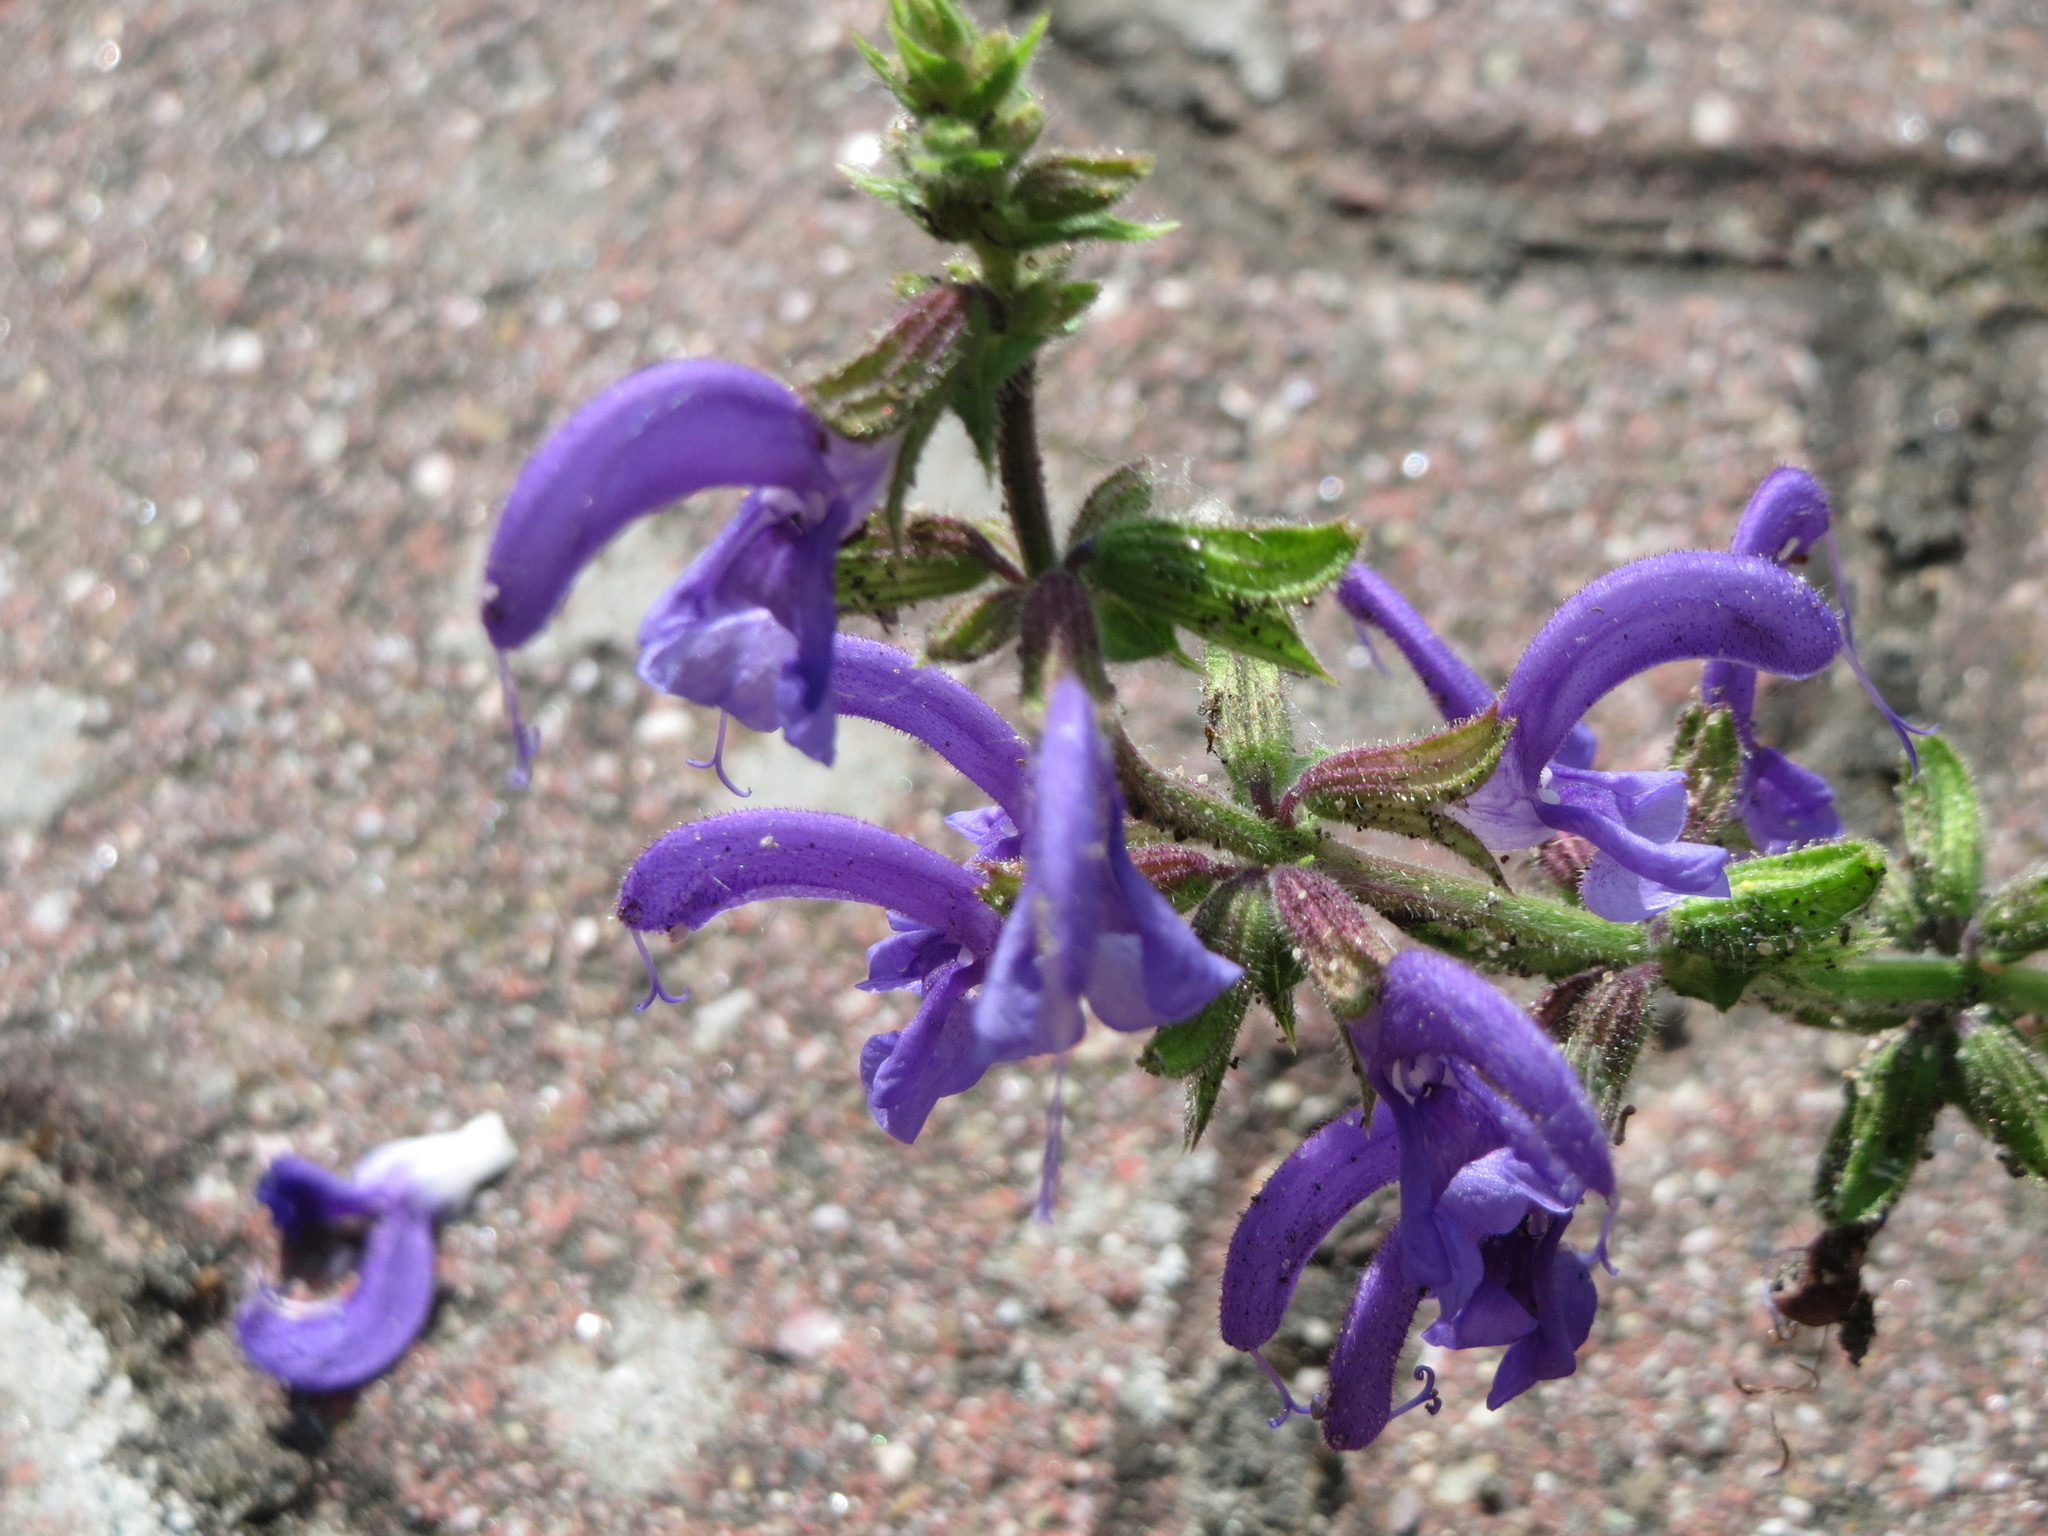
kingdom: Plantae
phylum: Tracheophyta
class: Magnoliopsida
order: Lamiales
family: Lamiaceae
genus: Salvia
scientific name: Salvia pratensis
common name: Meadow sage
